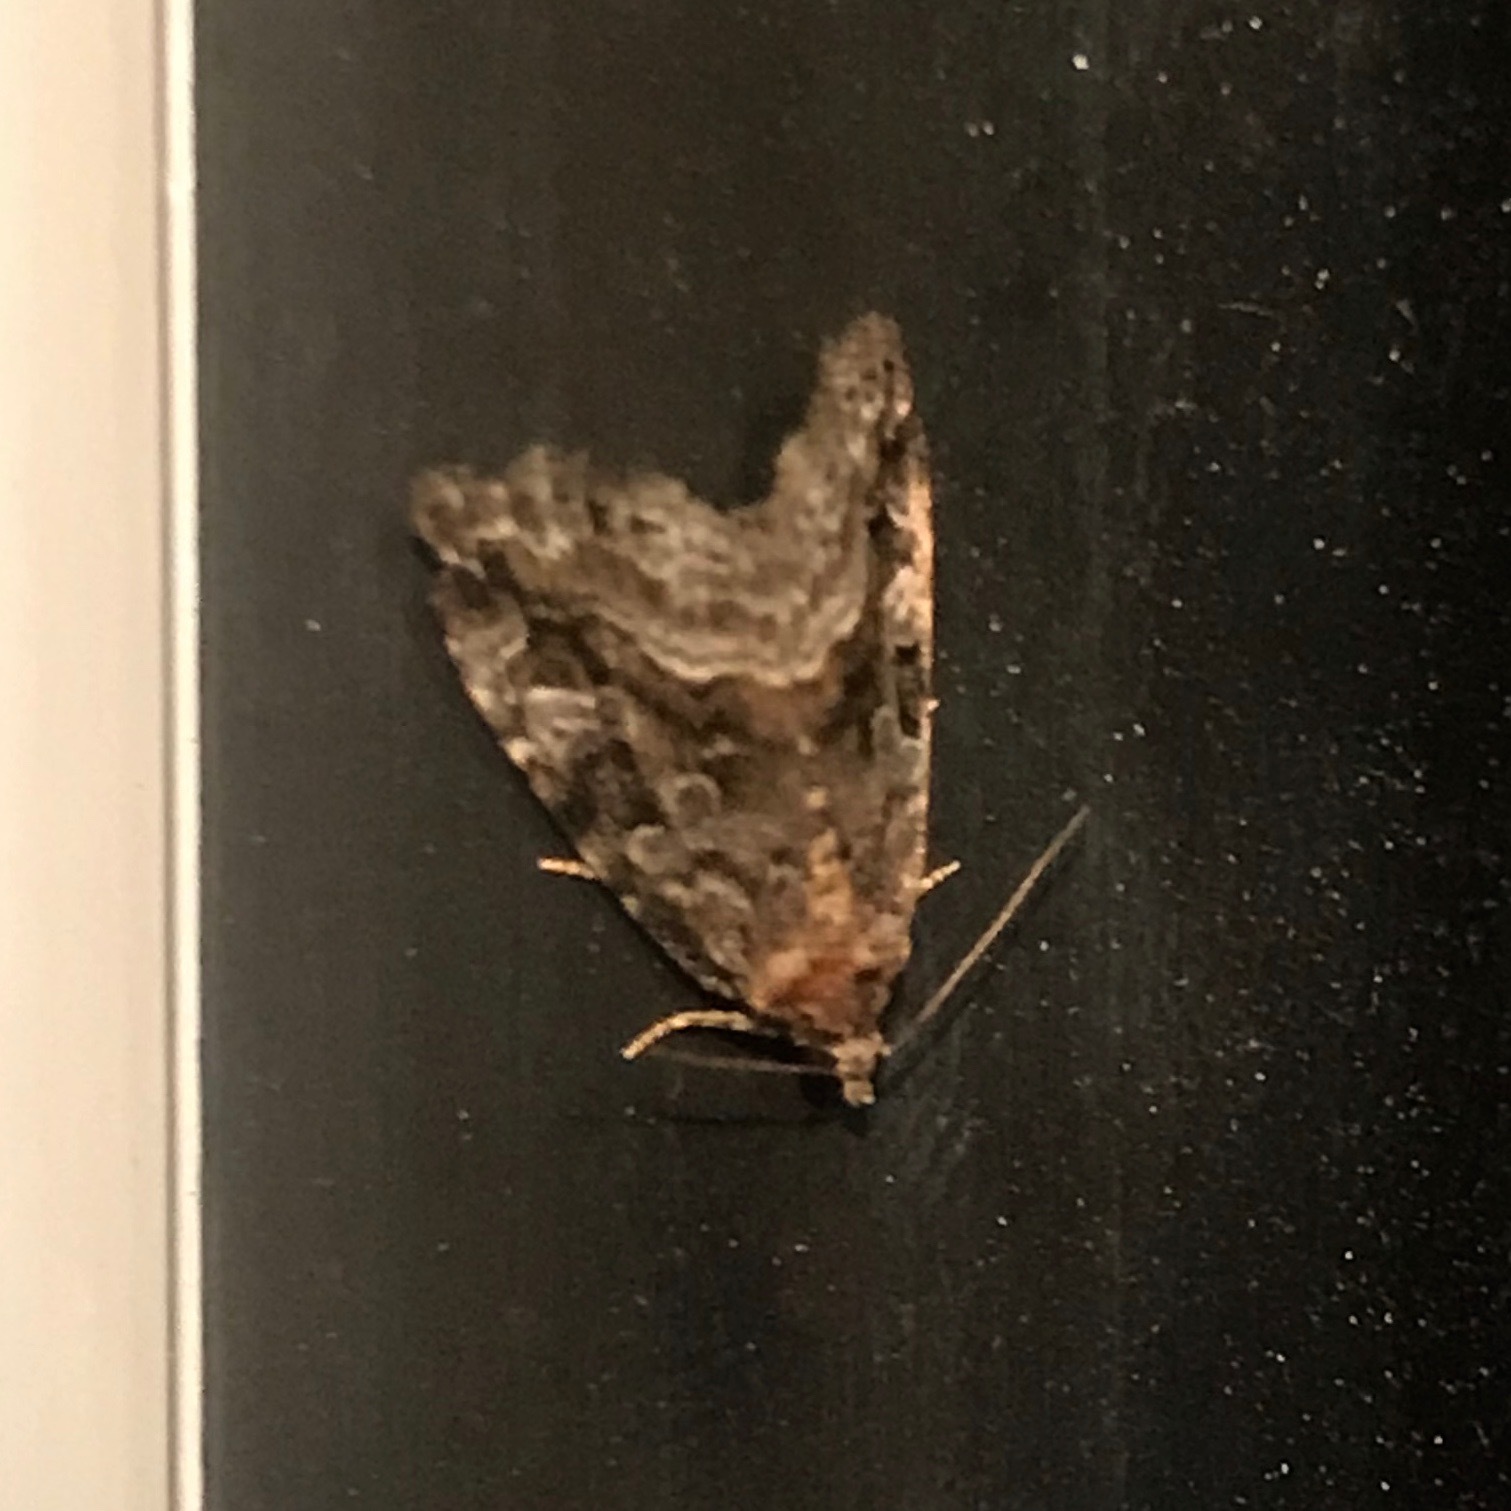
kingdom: Animalia
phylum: Arthropoda
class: Insecta
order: Lepidoptera
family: Noctuidae
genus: Protodeltote
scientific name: Protodeltote muscosula
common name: Large mossy glyph
